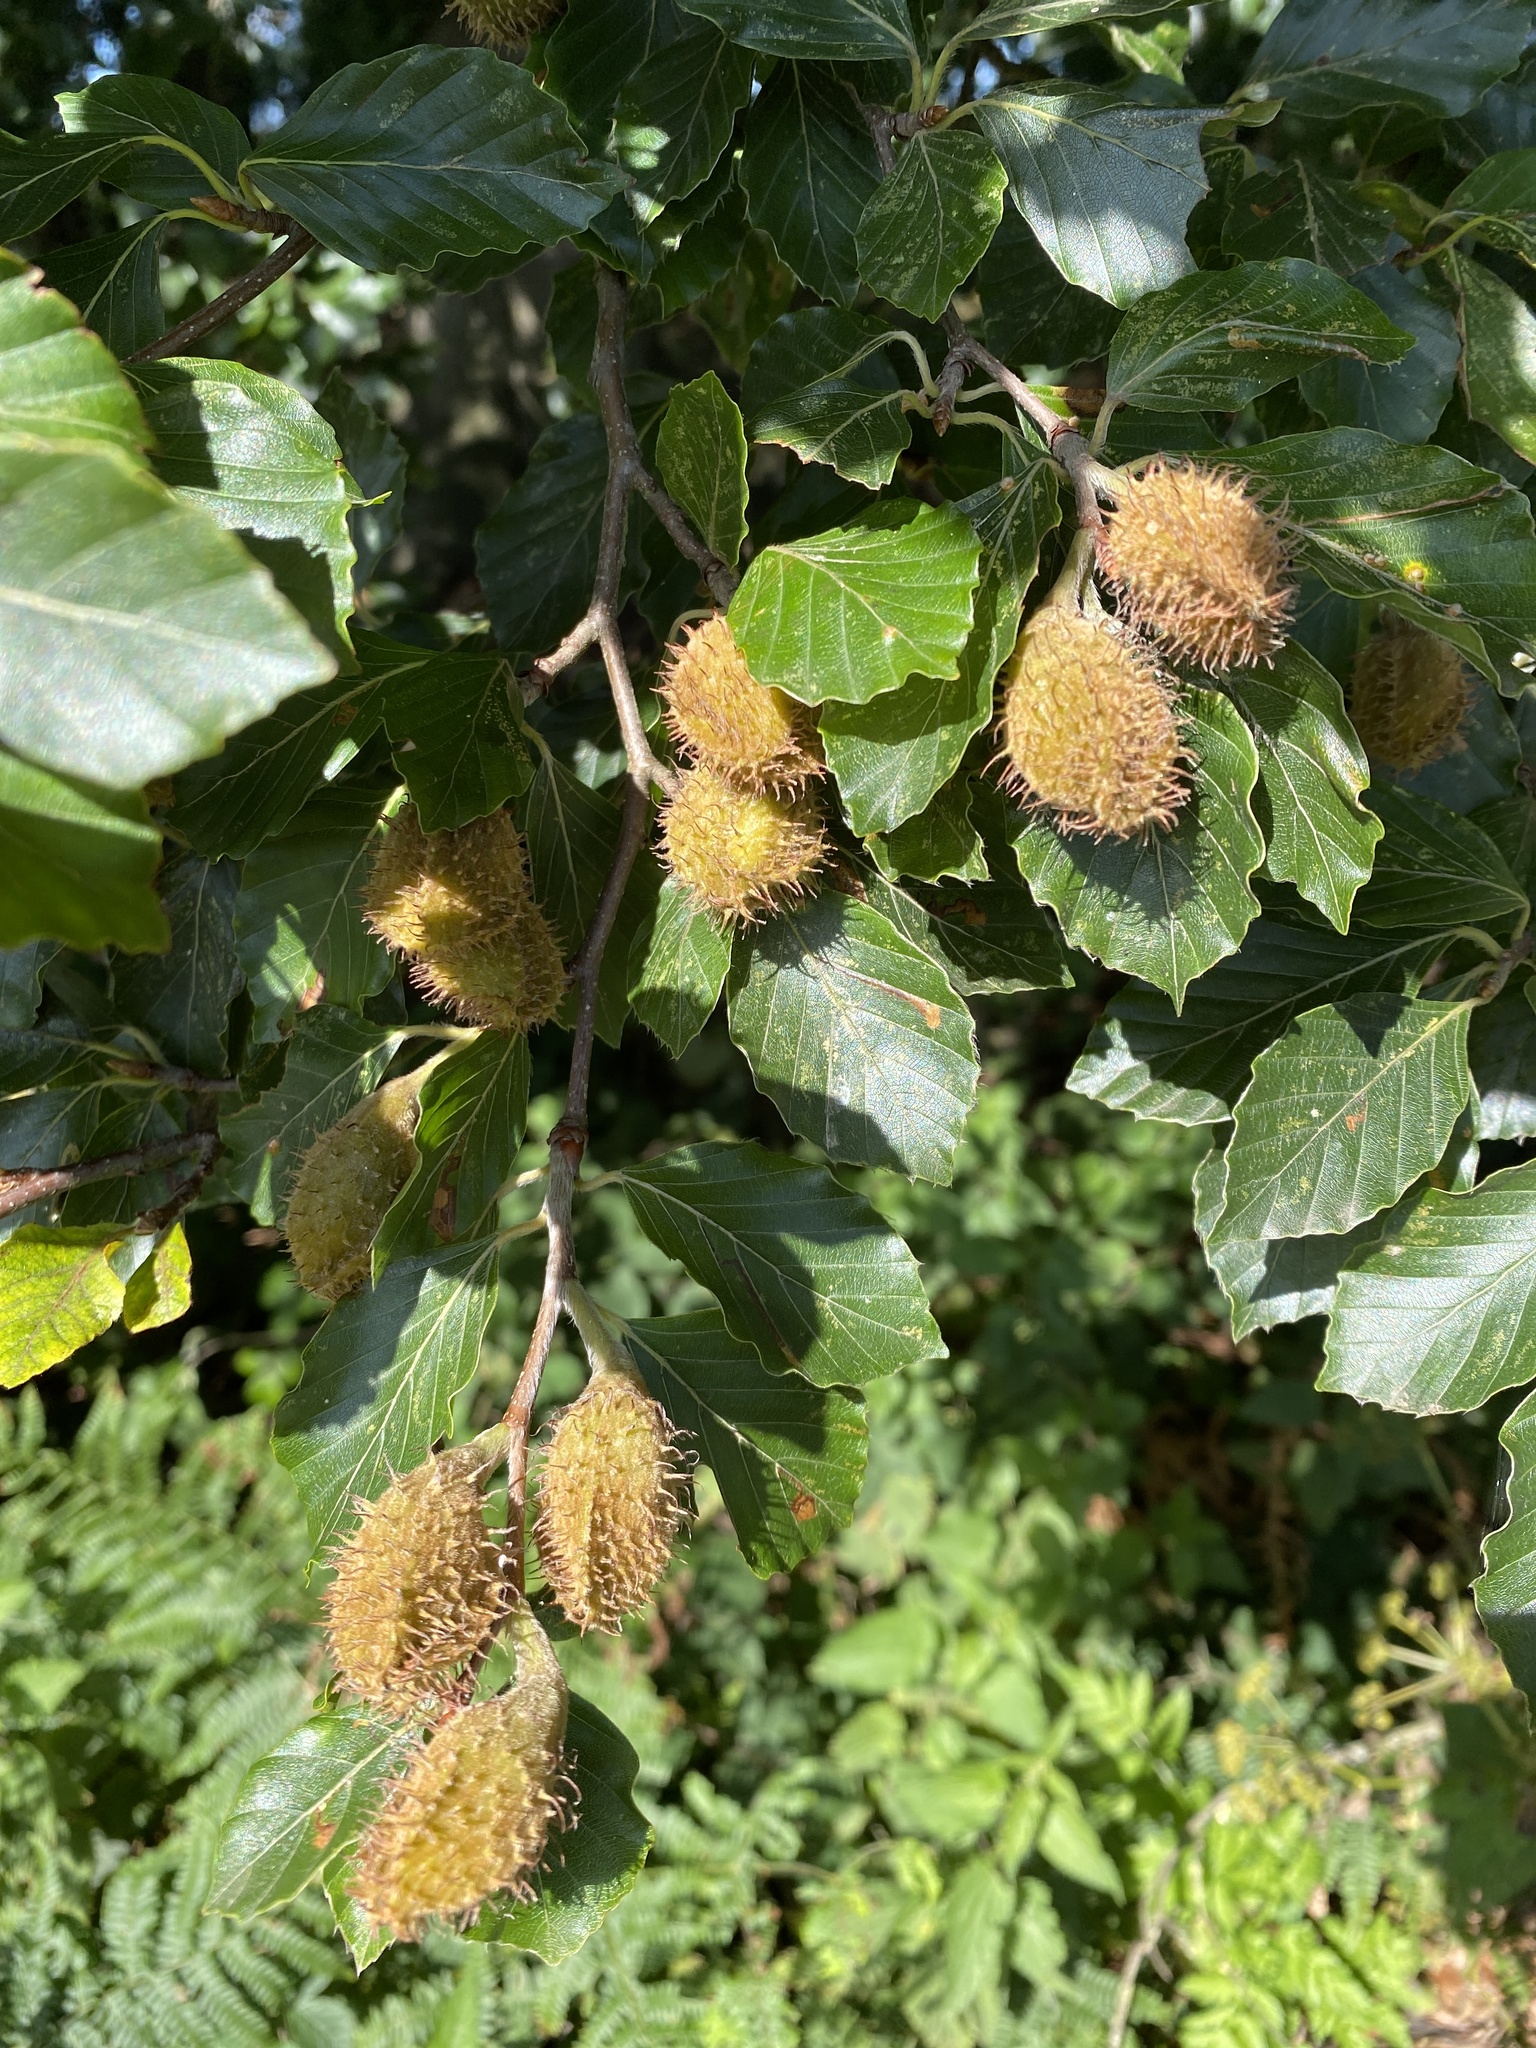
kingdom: Plantae
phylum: Tracheophyta
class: Magnoliopsida
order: Fagales
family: Fagaceae
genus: Fagus
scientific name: Fagus sylvatica
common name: Beech
